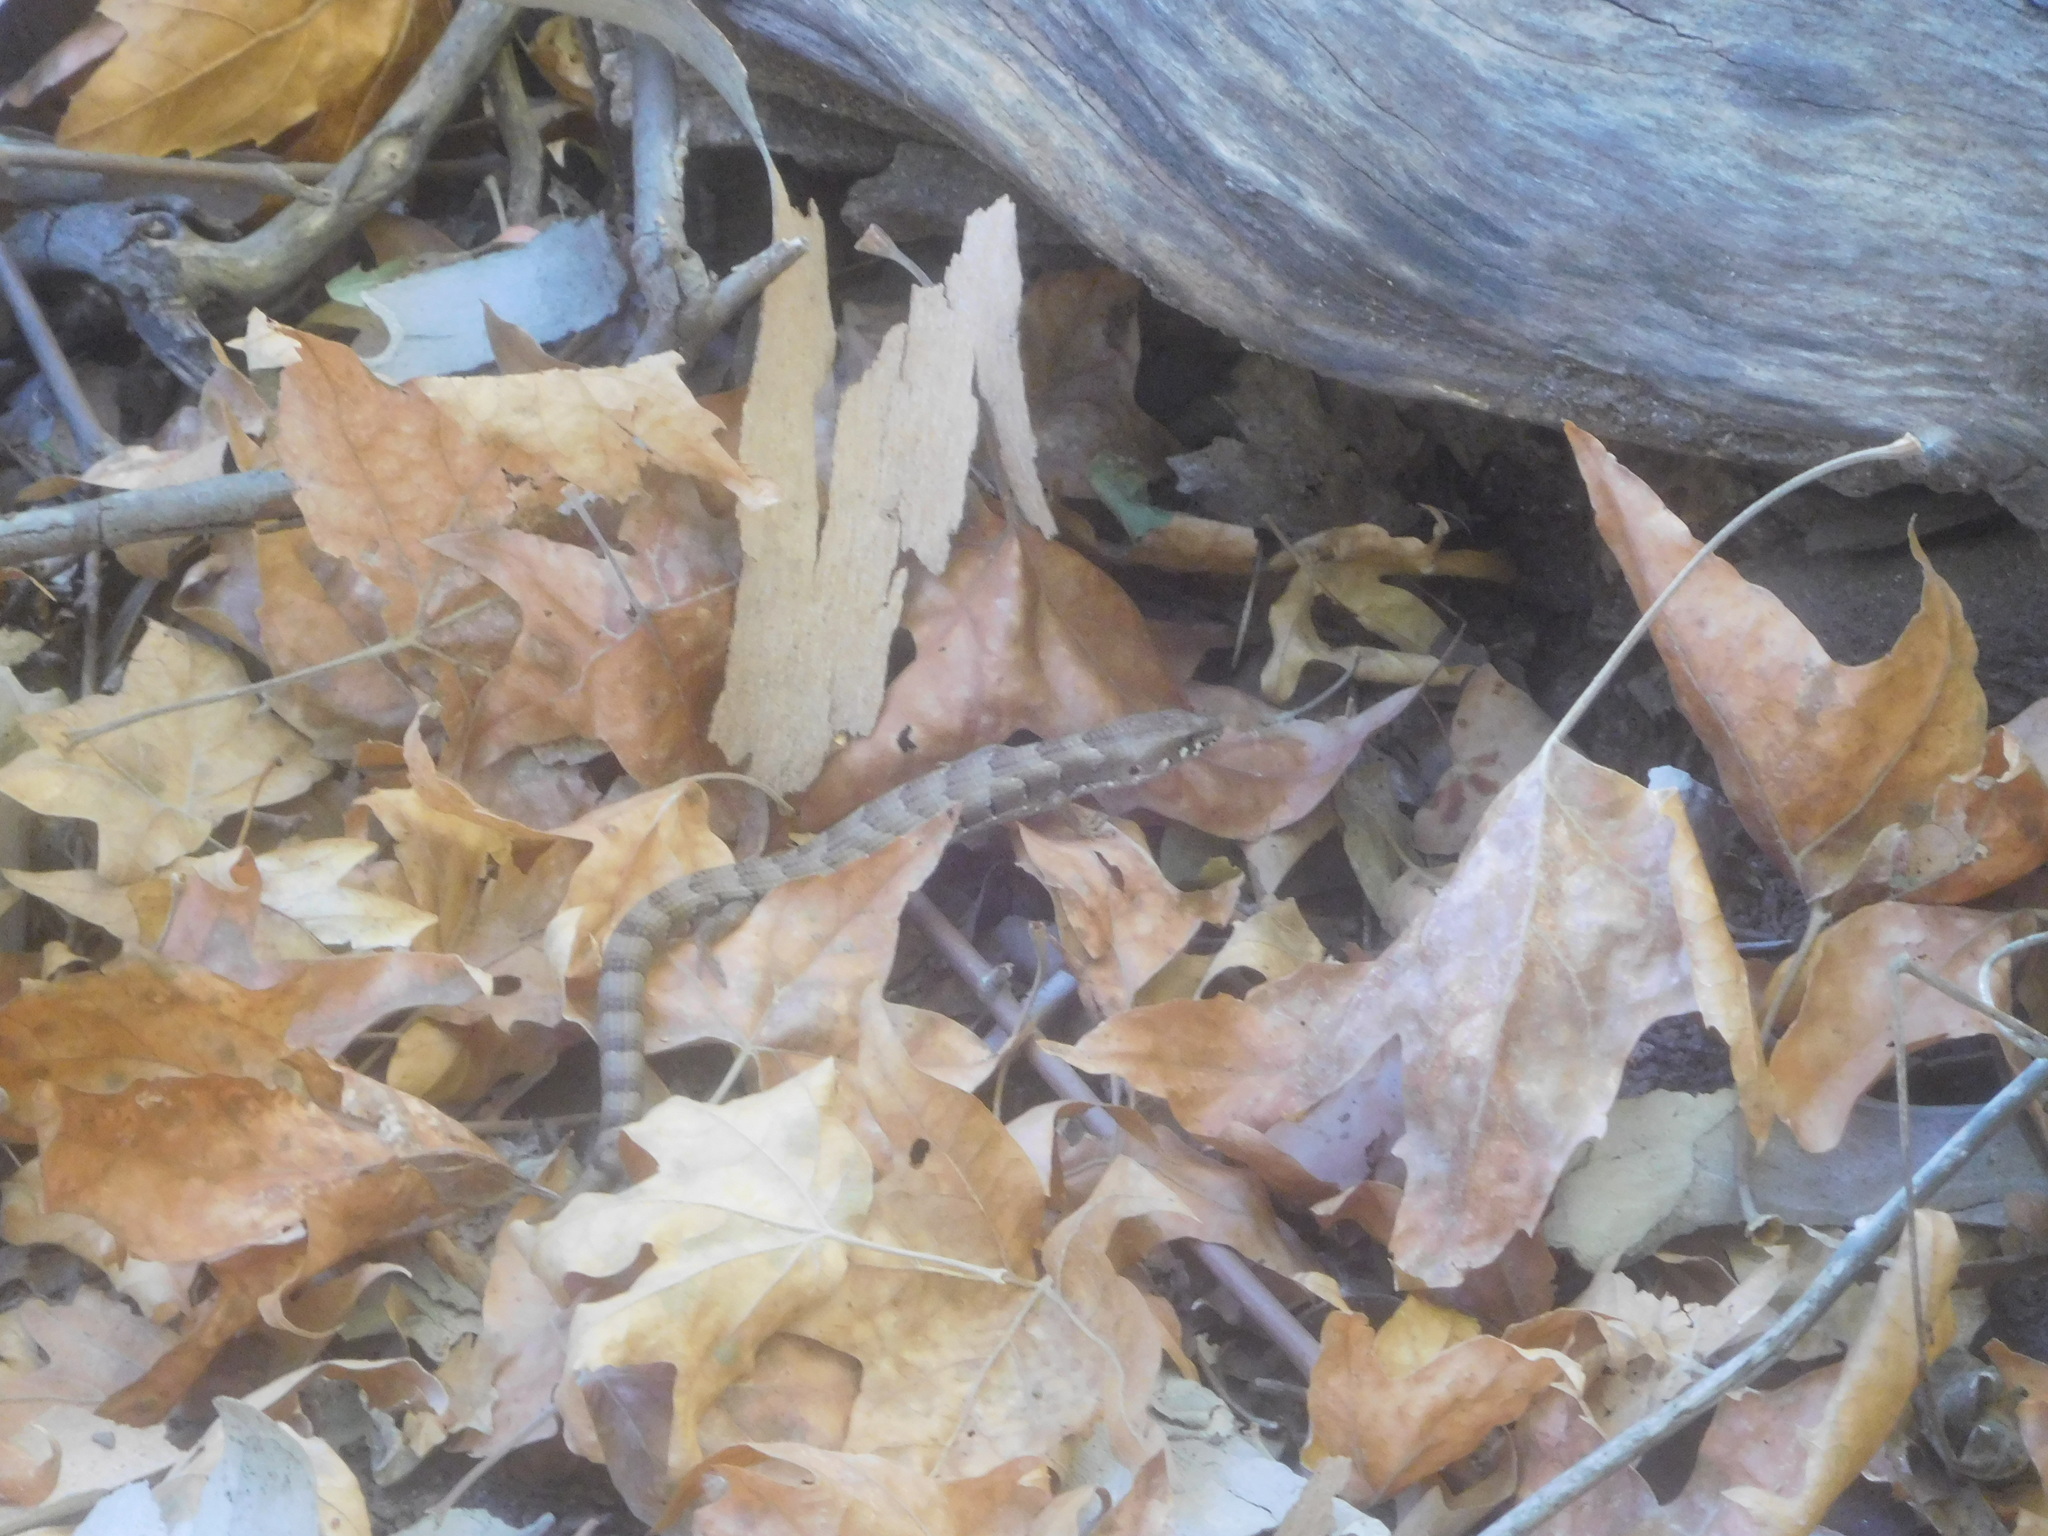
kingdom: Animalia
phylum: Chordata
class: Squamata
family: Anguidae
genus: Elgaria
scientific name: Elgaria kingii
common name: Madrean alligator lizard
